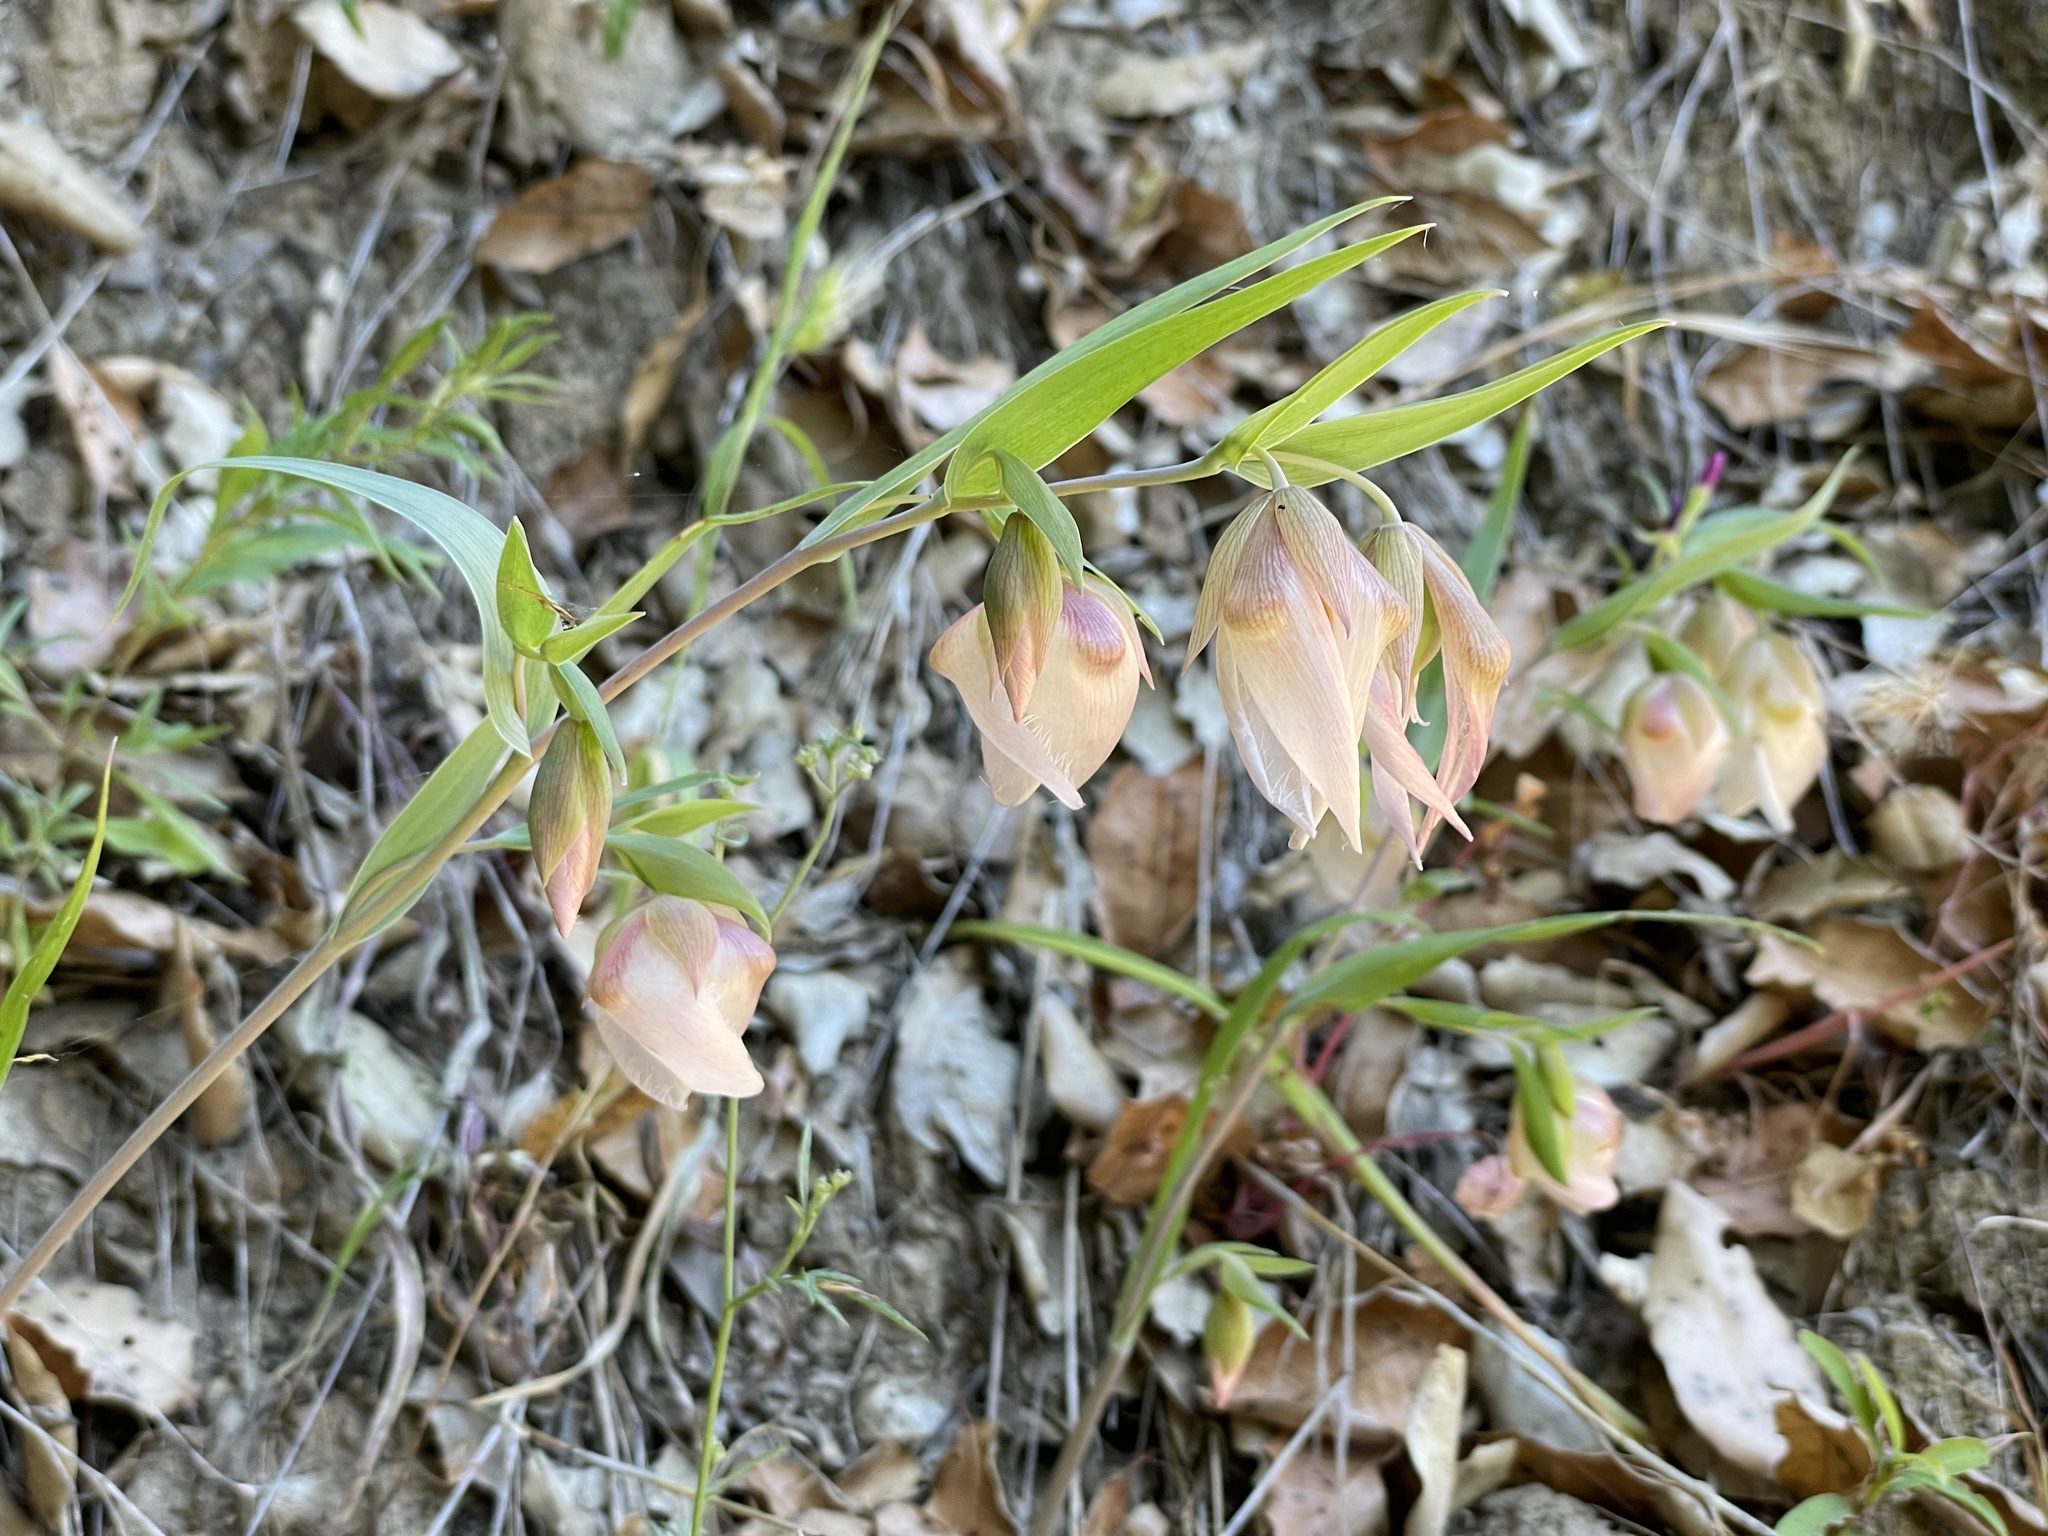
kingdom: Plantae
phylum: Tracheophyta
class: Liliopsida
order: Liliales
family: Liliaceae
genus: Calochortus
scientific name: Calochortus albus
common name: Fairy-lantern
